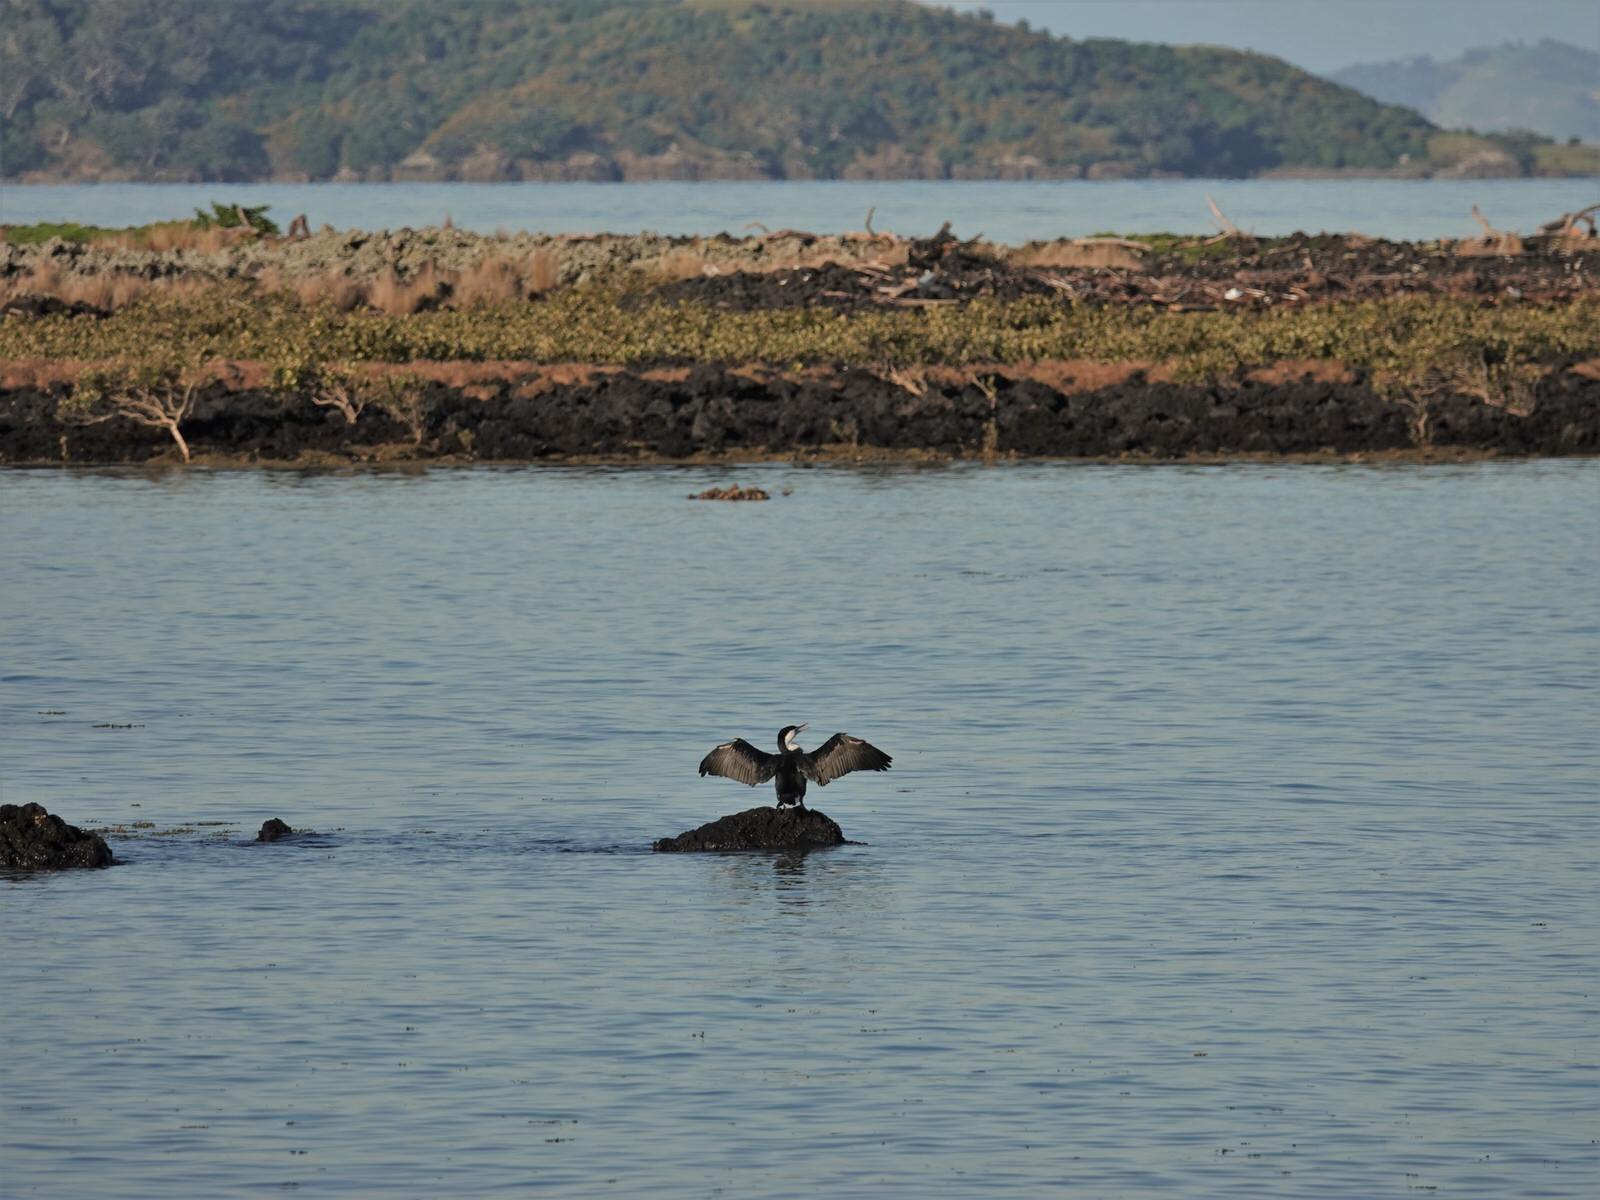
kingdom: Animalia
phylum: Chordata
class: Aves
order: Suliformes
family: Phalacrocoracidae
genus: Phalacrocorax
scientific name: Phalacrocorax varius
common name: Pied cormorant
